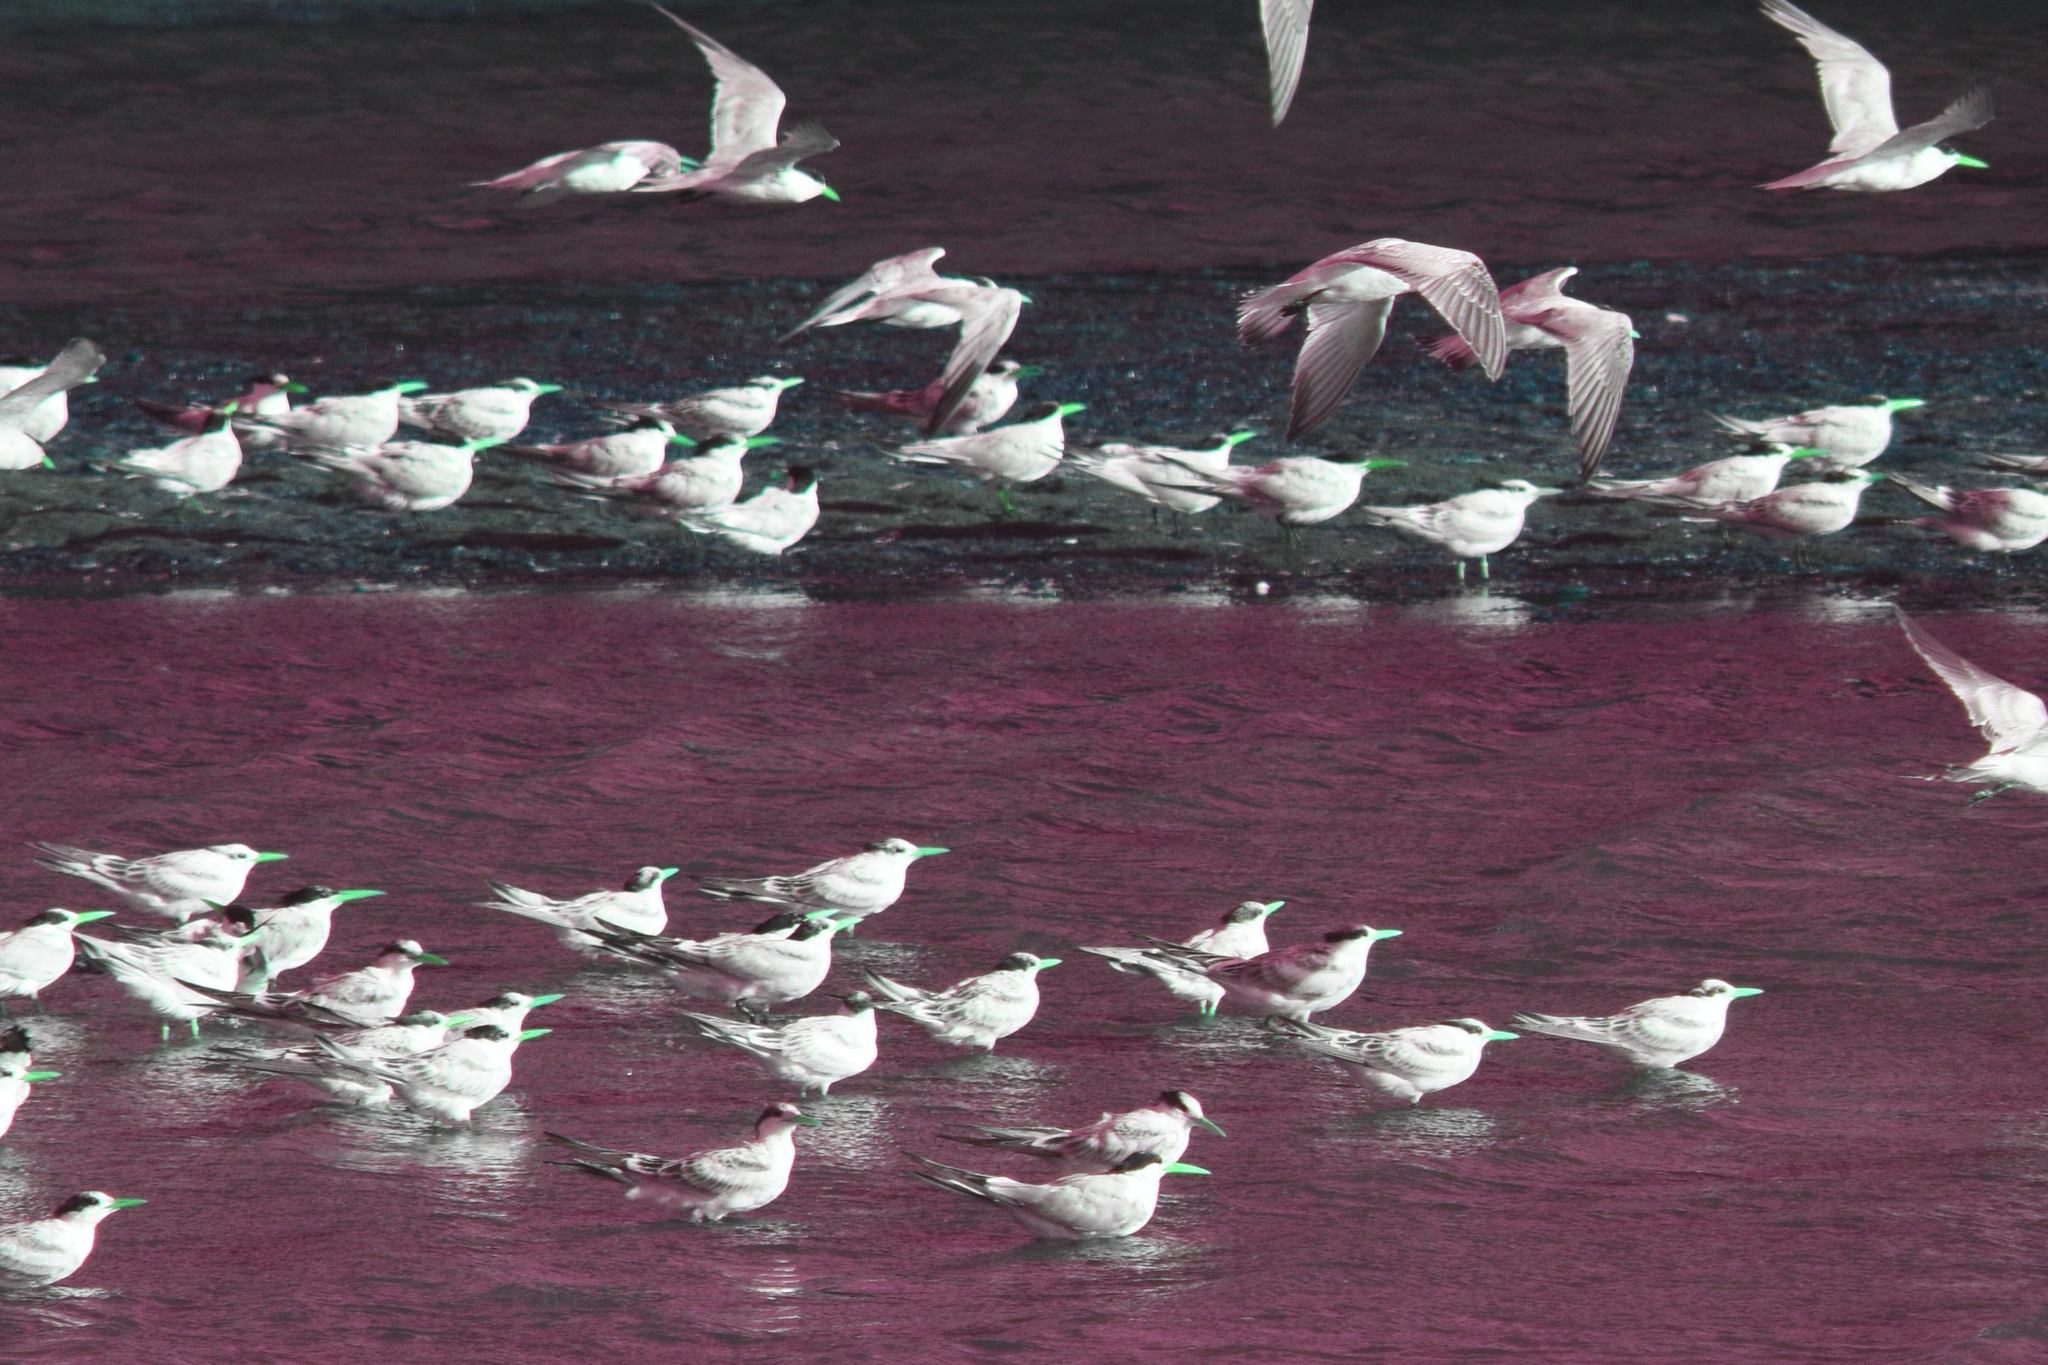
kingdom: Animalia
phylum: Chordata
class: Aves
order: Charadriiformes
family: Laridae
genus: Thalasseus
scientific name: Thalasseus elegans
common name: Elegant tern
